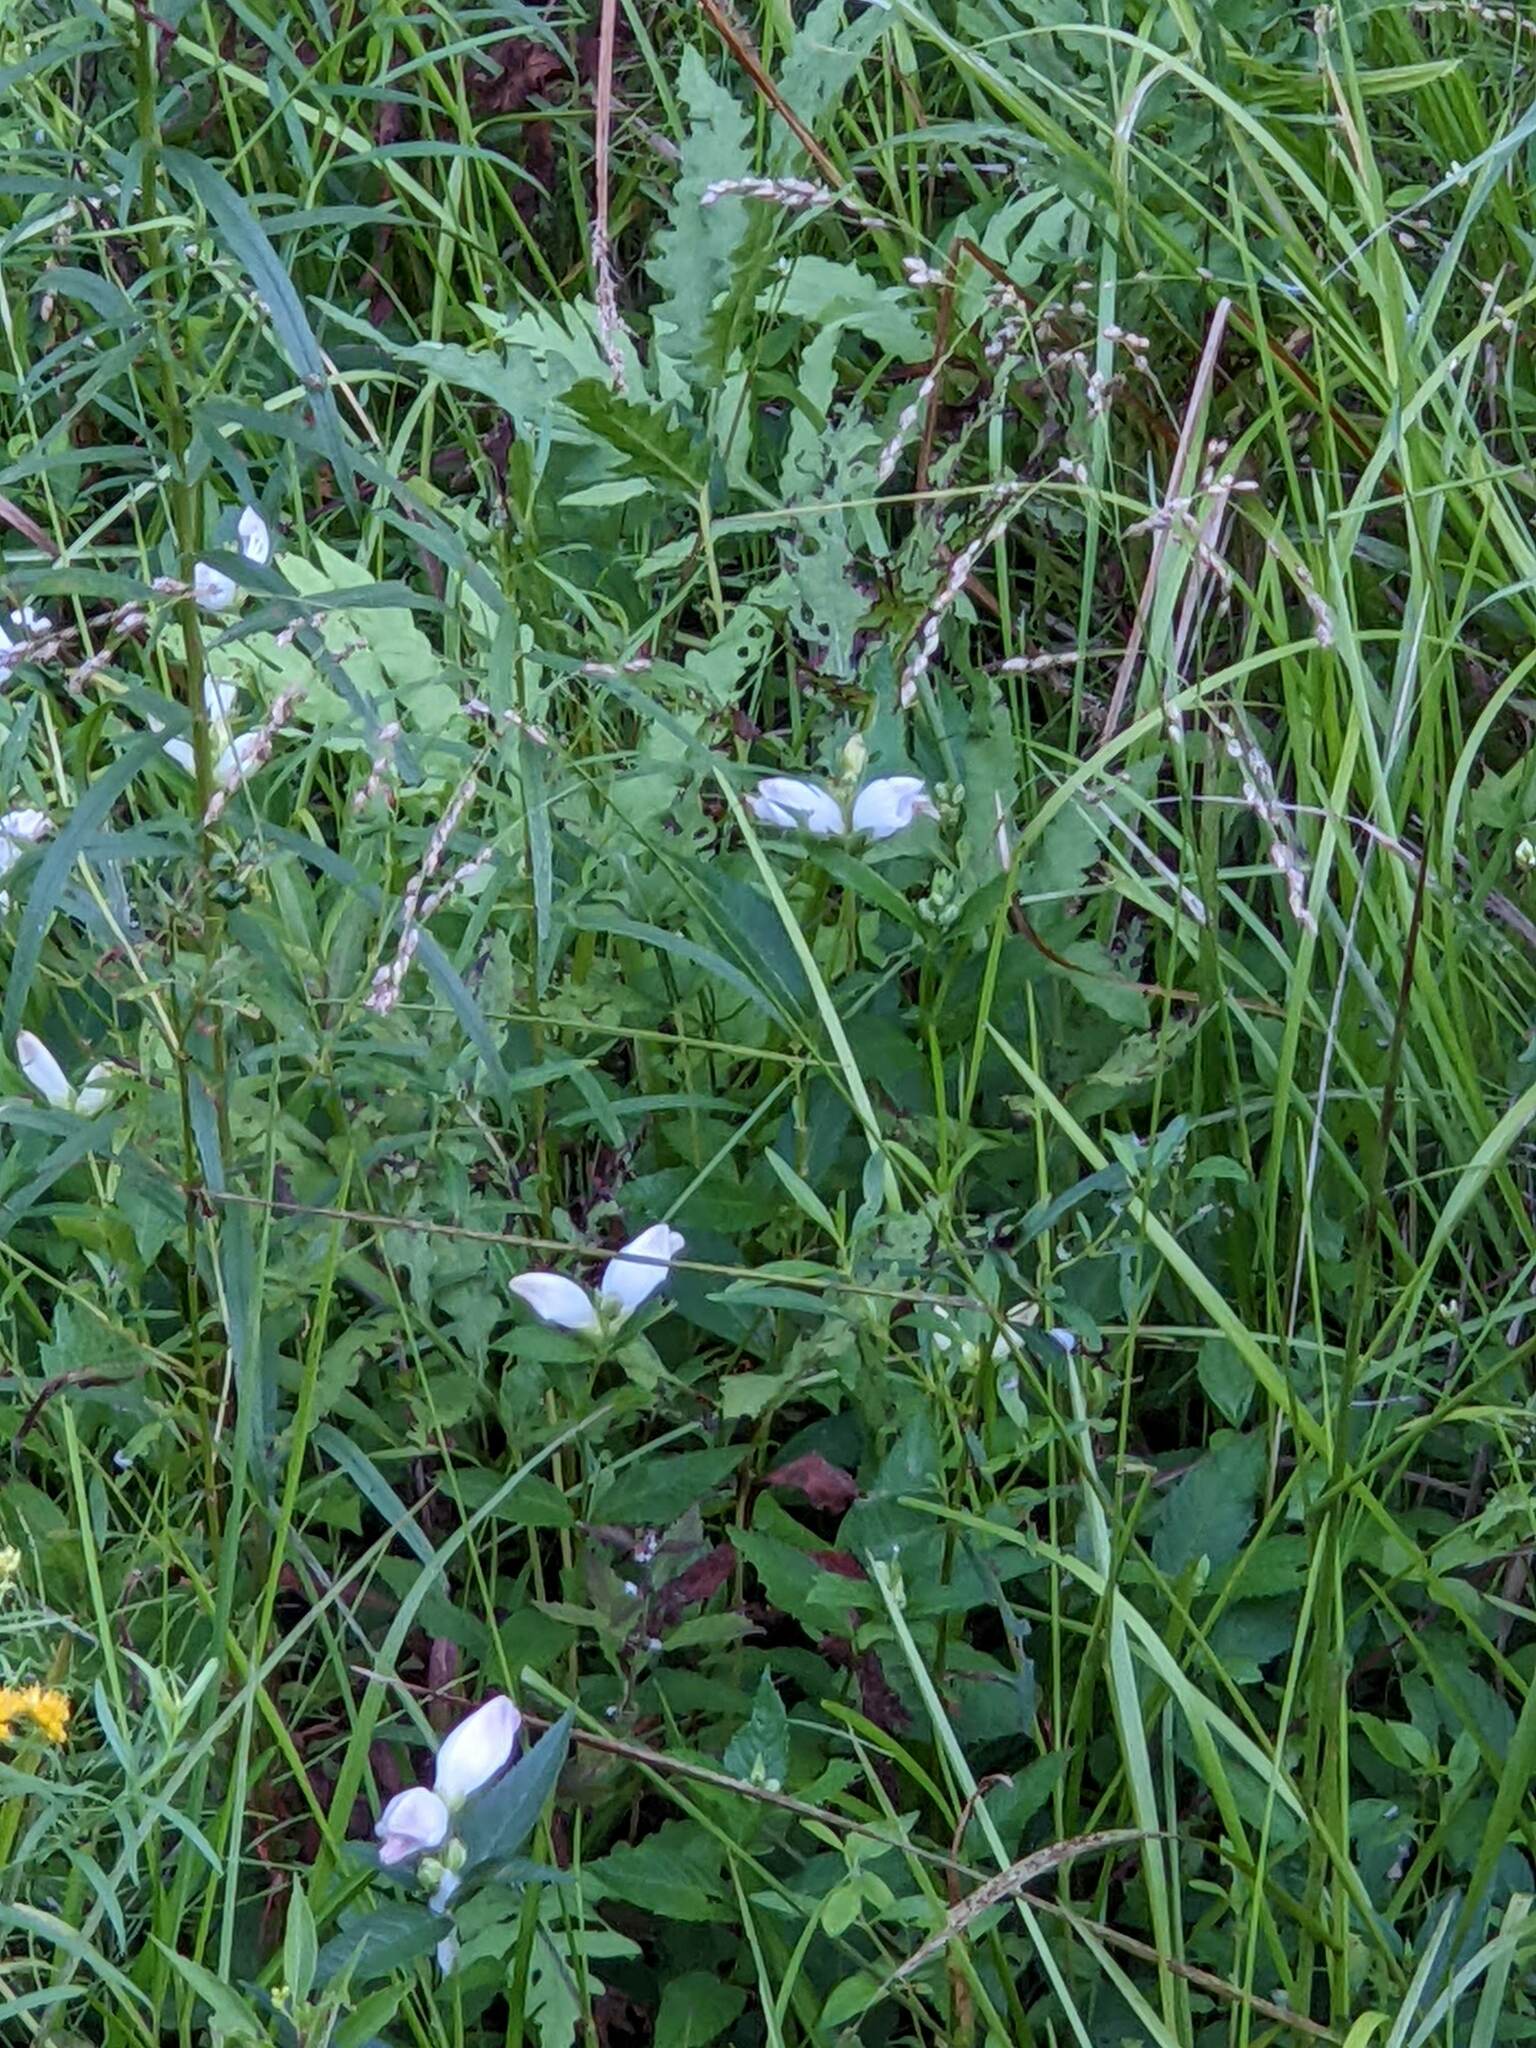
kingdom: Plantae
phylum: Tracheophyta
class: Magnoliopsida
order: Lamiales
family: Plantaginaceae
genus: Chelone
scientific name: Chelone glabra
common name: Snakehead
